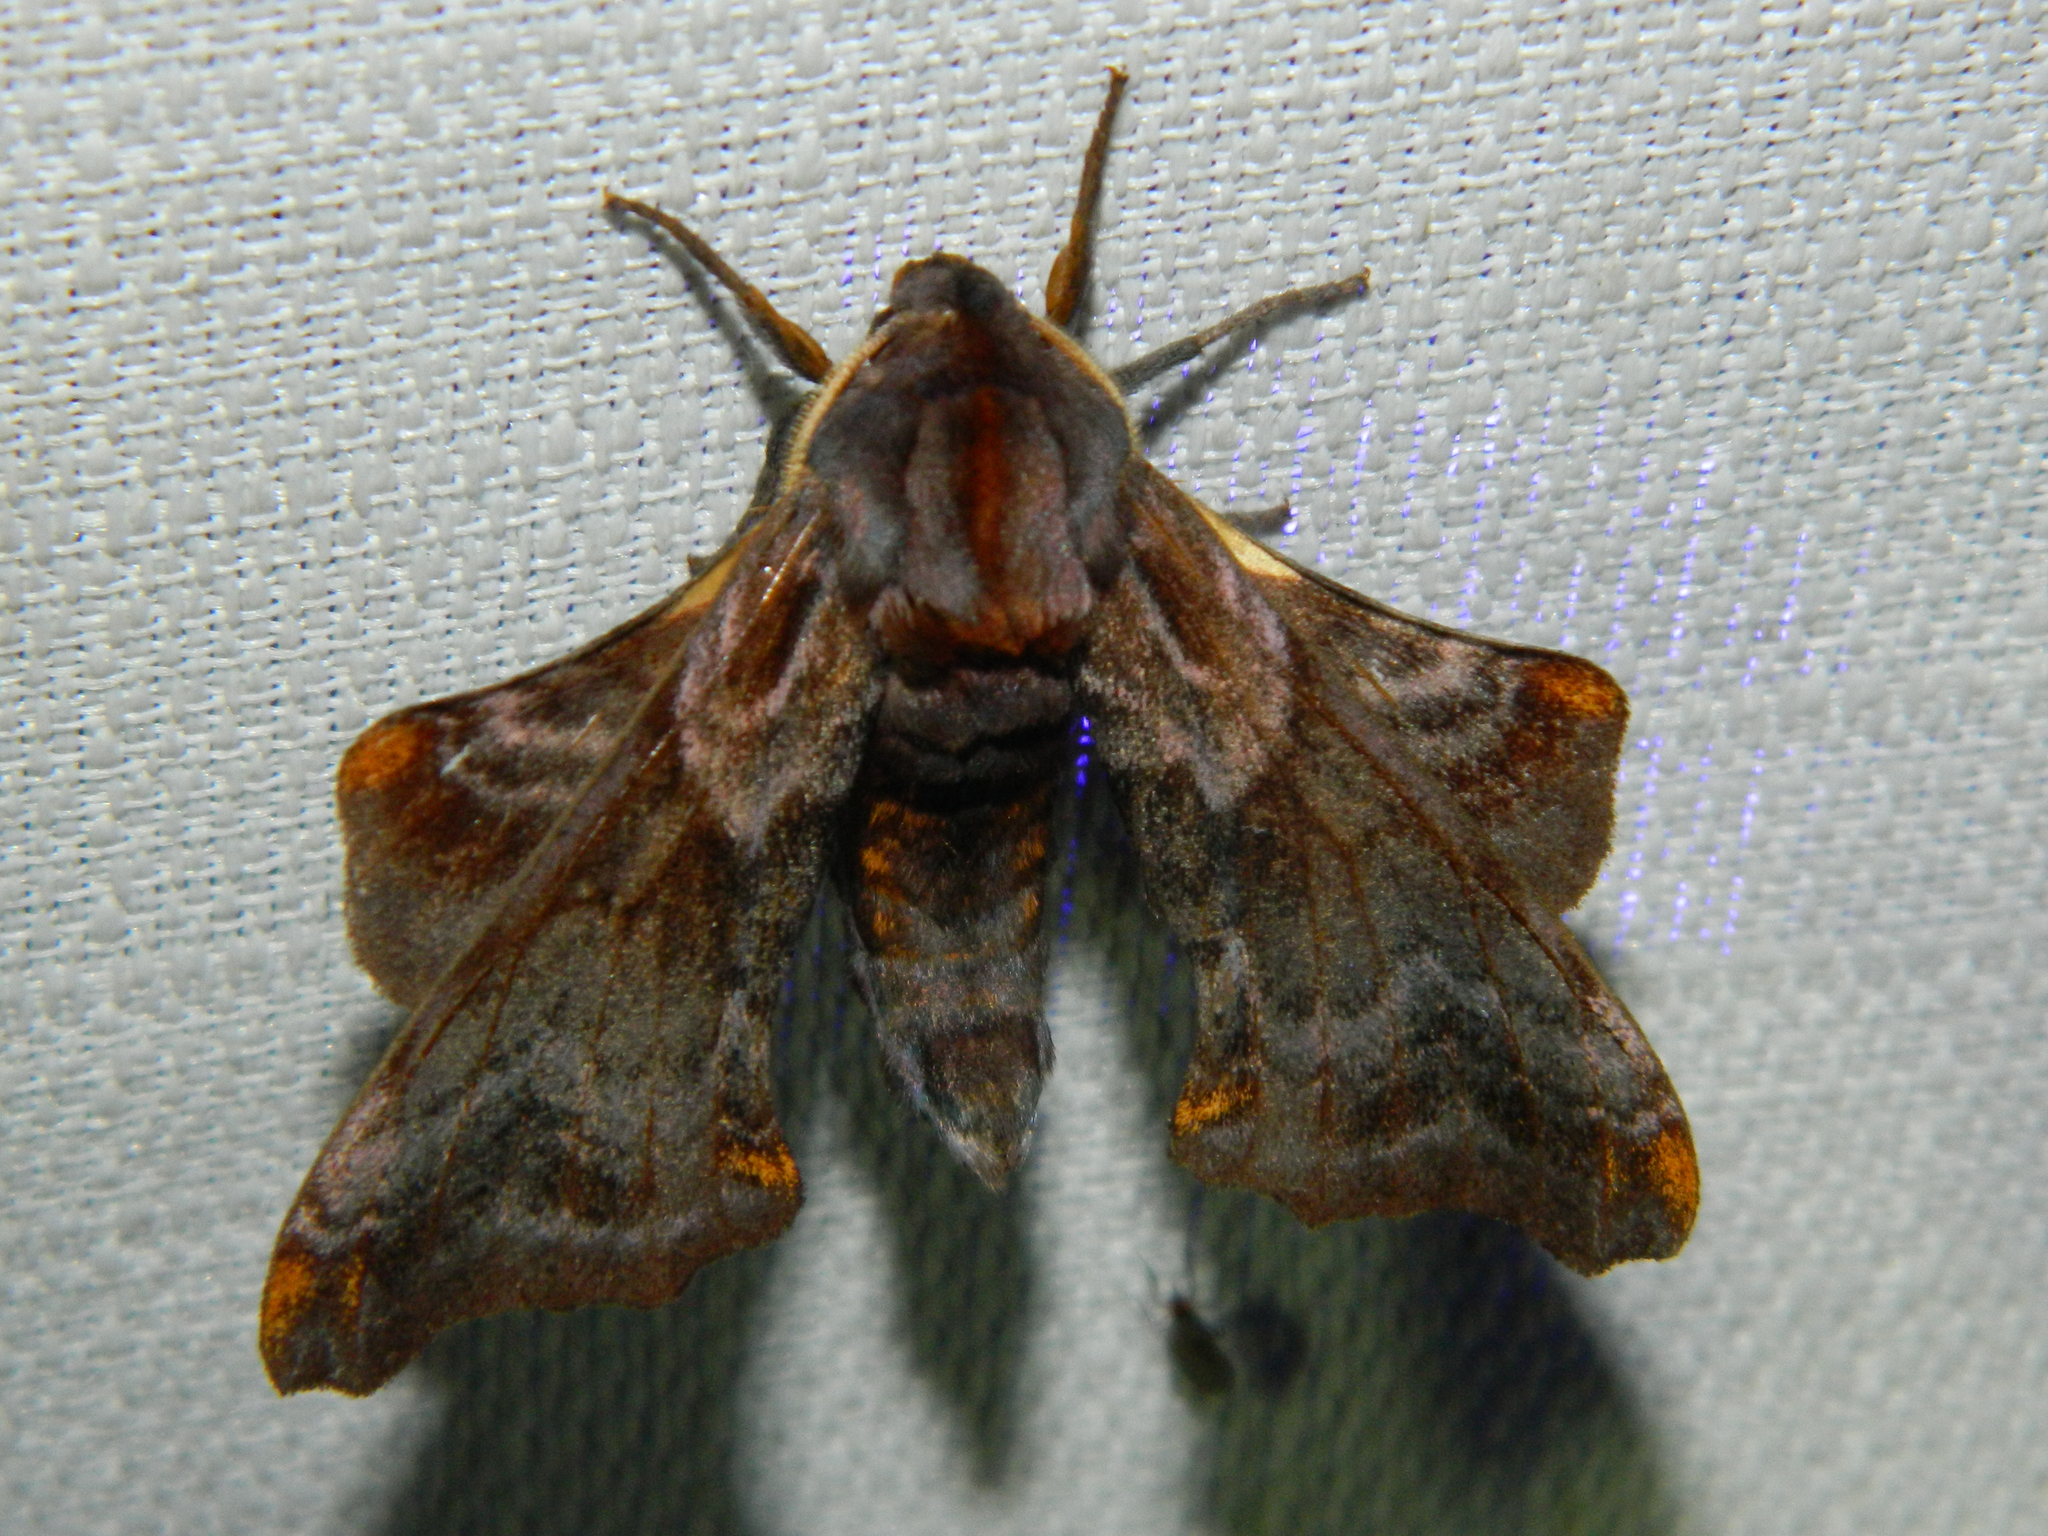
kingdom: Animalia
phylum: Arthropoda
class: Insecta
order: Lepidoptera
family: Sphingidae
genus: Paonias
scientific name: Paonias myops
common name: Small-eyed sphinx
